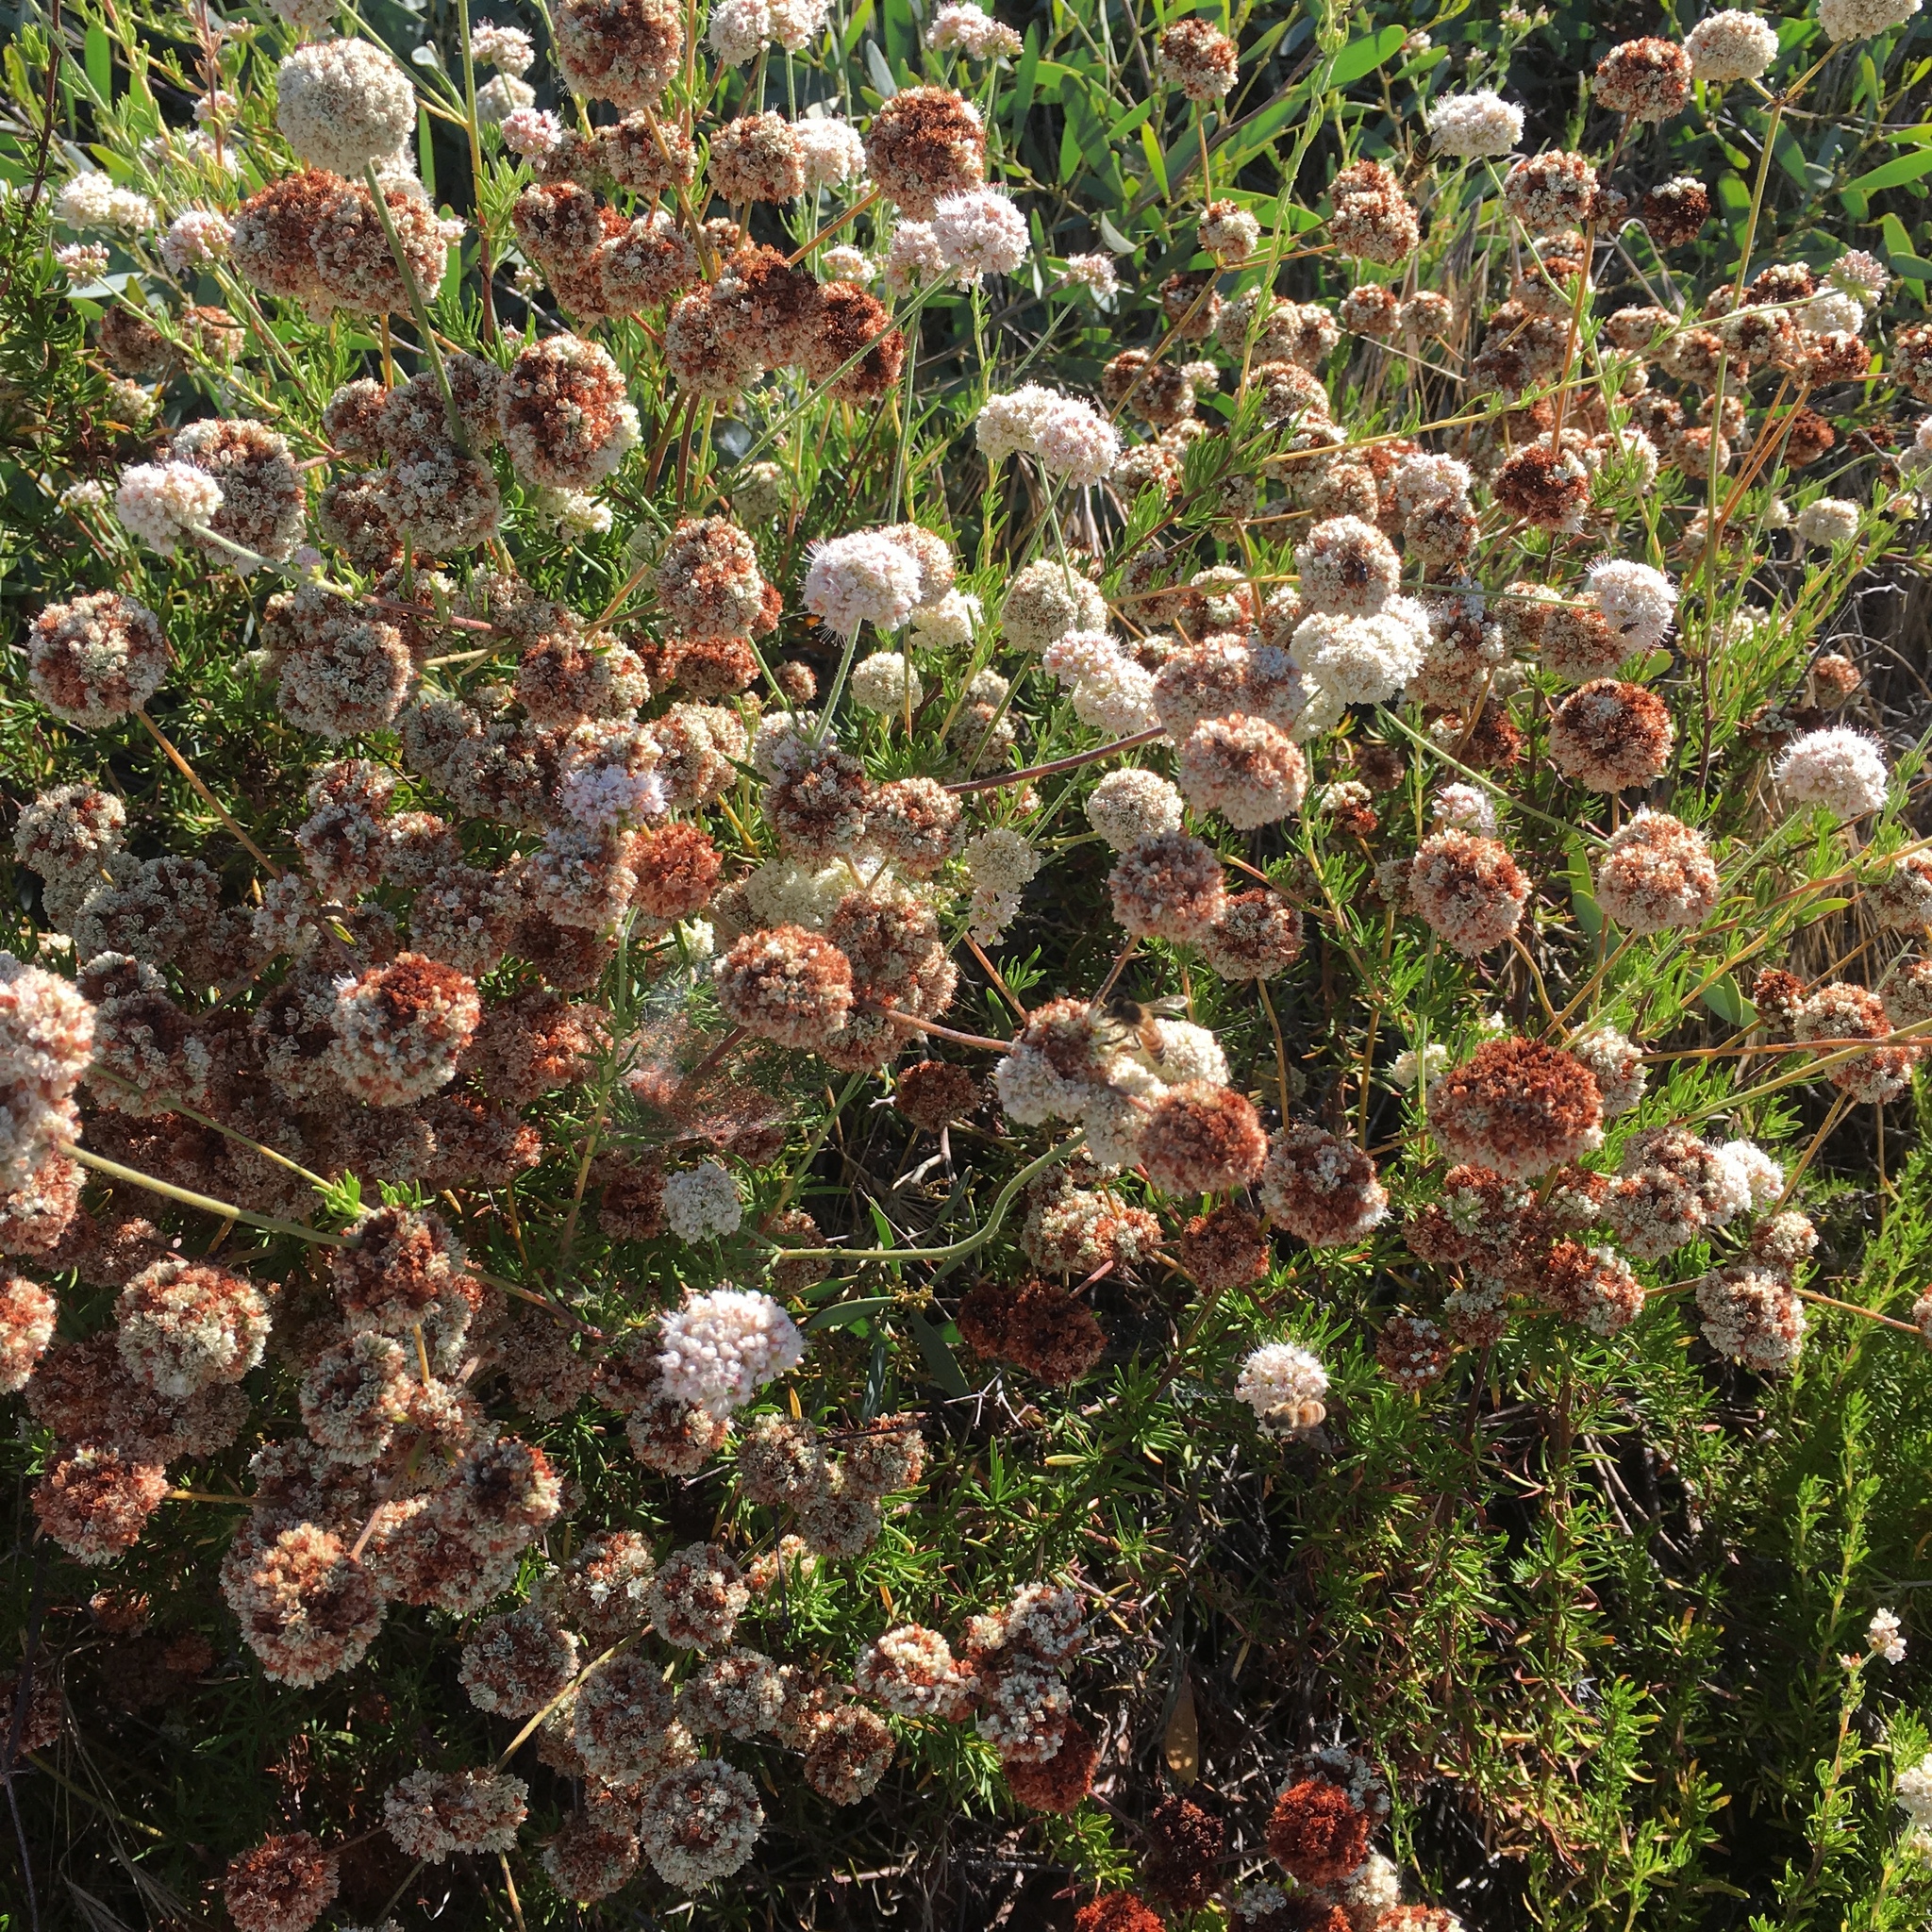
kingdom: Plantae
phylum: Tracheophyta
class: Magnoliopsida
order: Caryophyllales
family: Polygonaceae
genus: Eriogonum
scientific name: Eriogonum fasciculatum
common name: California wild buckwheat
